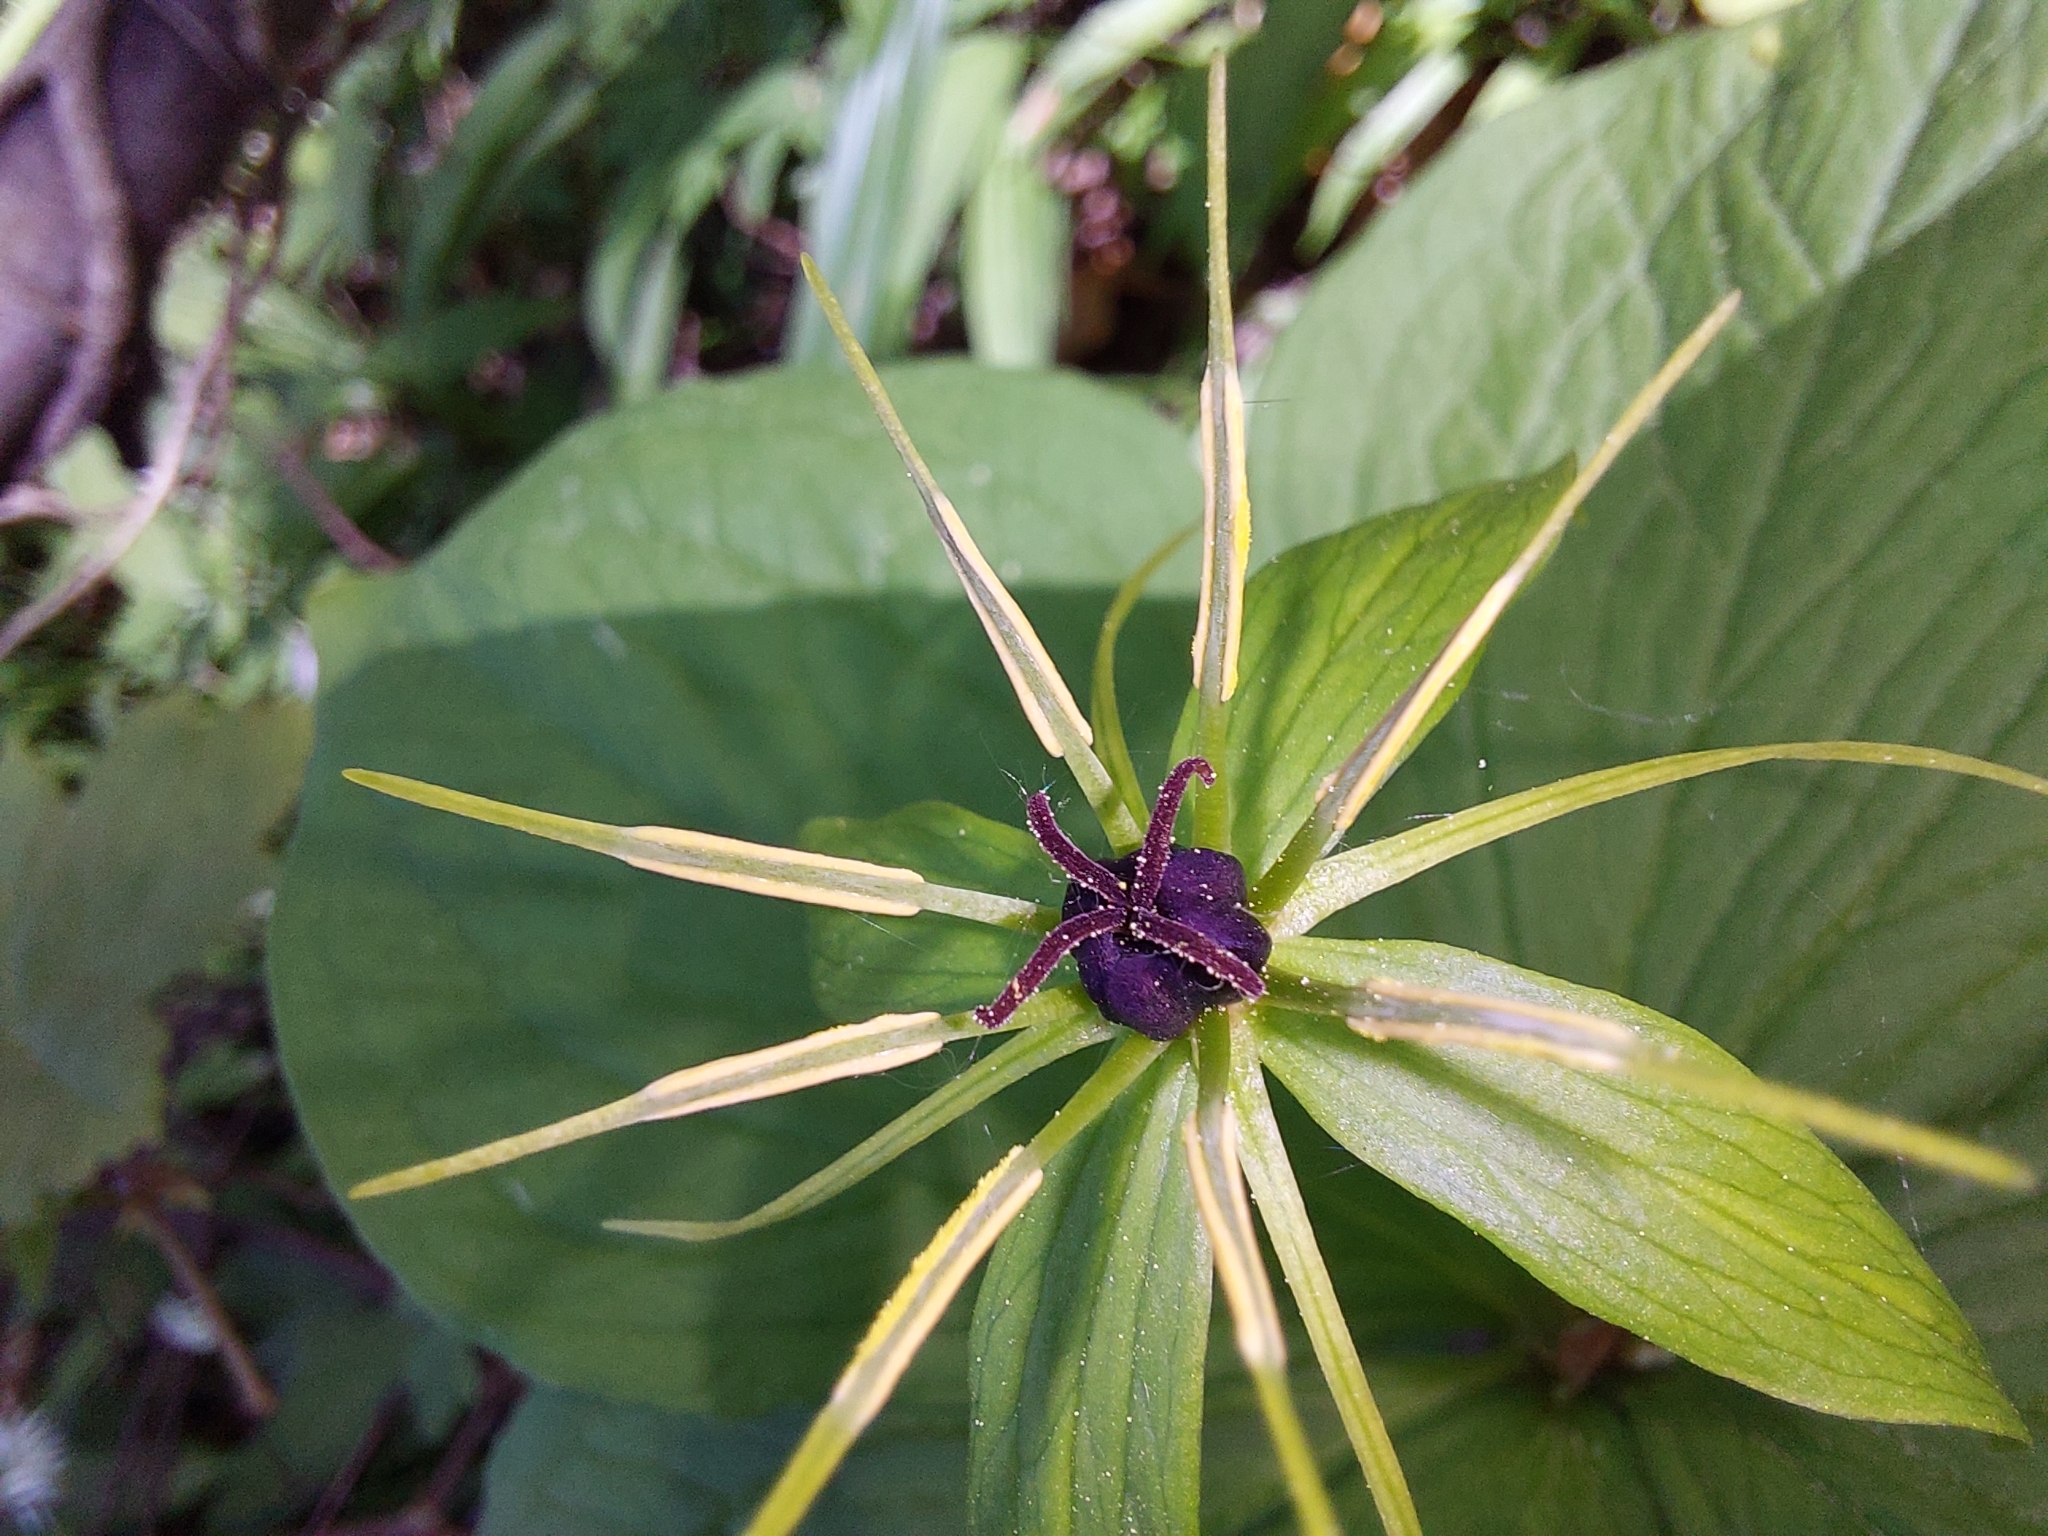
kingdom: Plantae
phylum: Tracheophyta
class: Liliopsida
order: Liliales
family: Melanthiaceae
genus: Paris
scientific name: Paris quadrifolia
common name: Herb-paris
